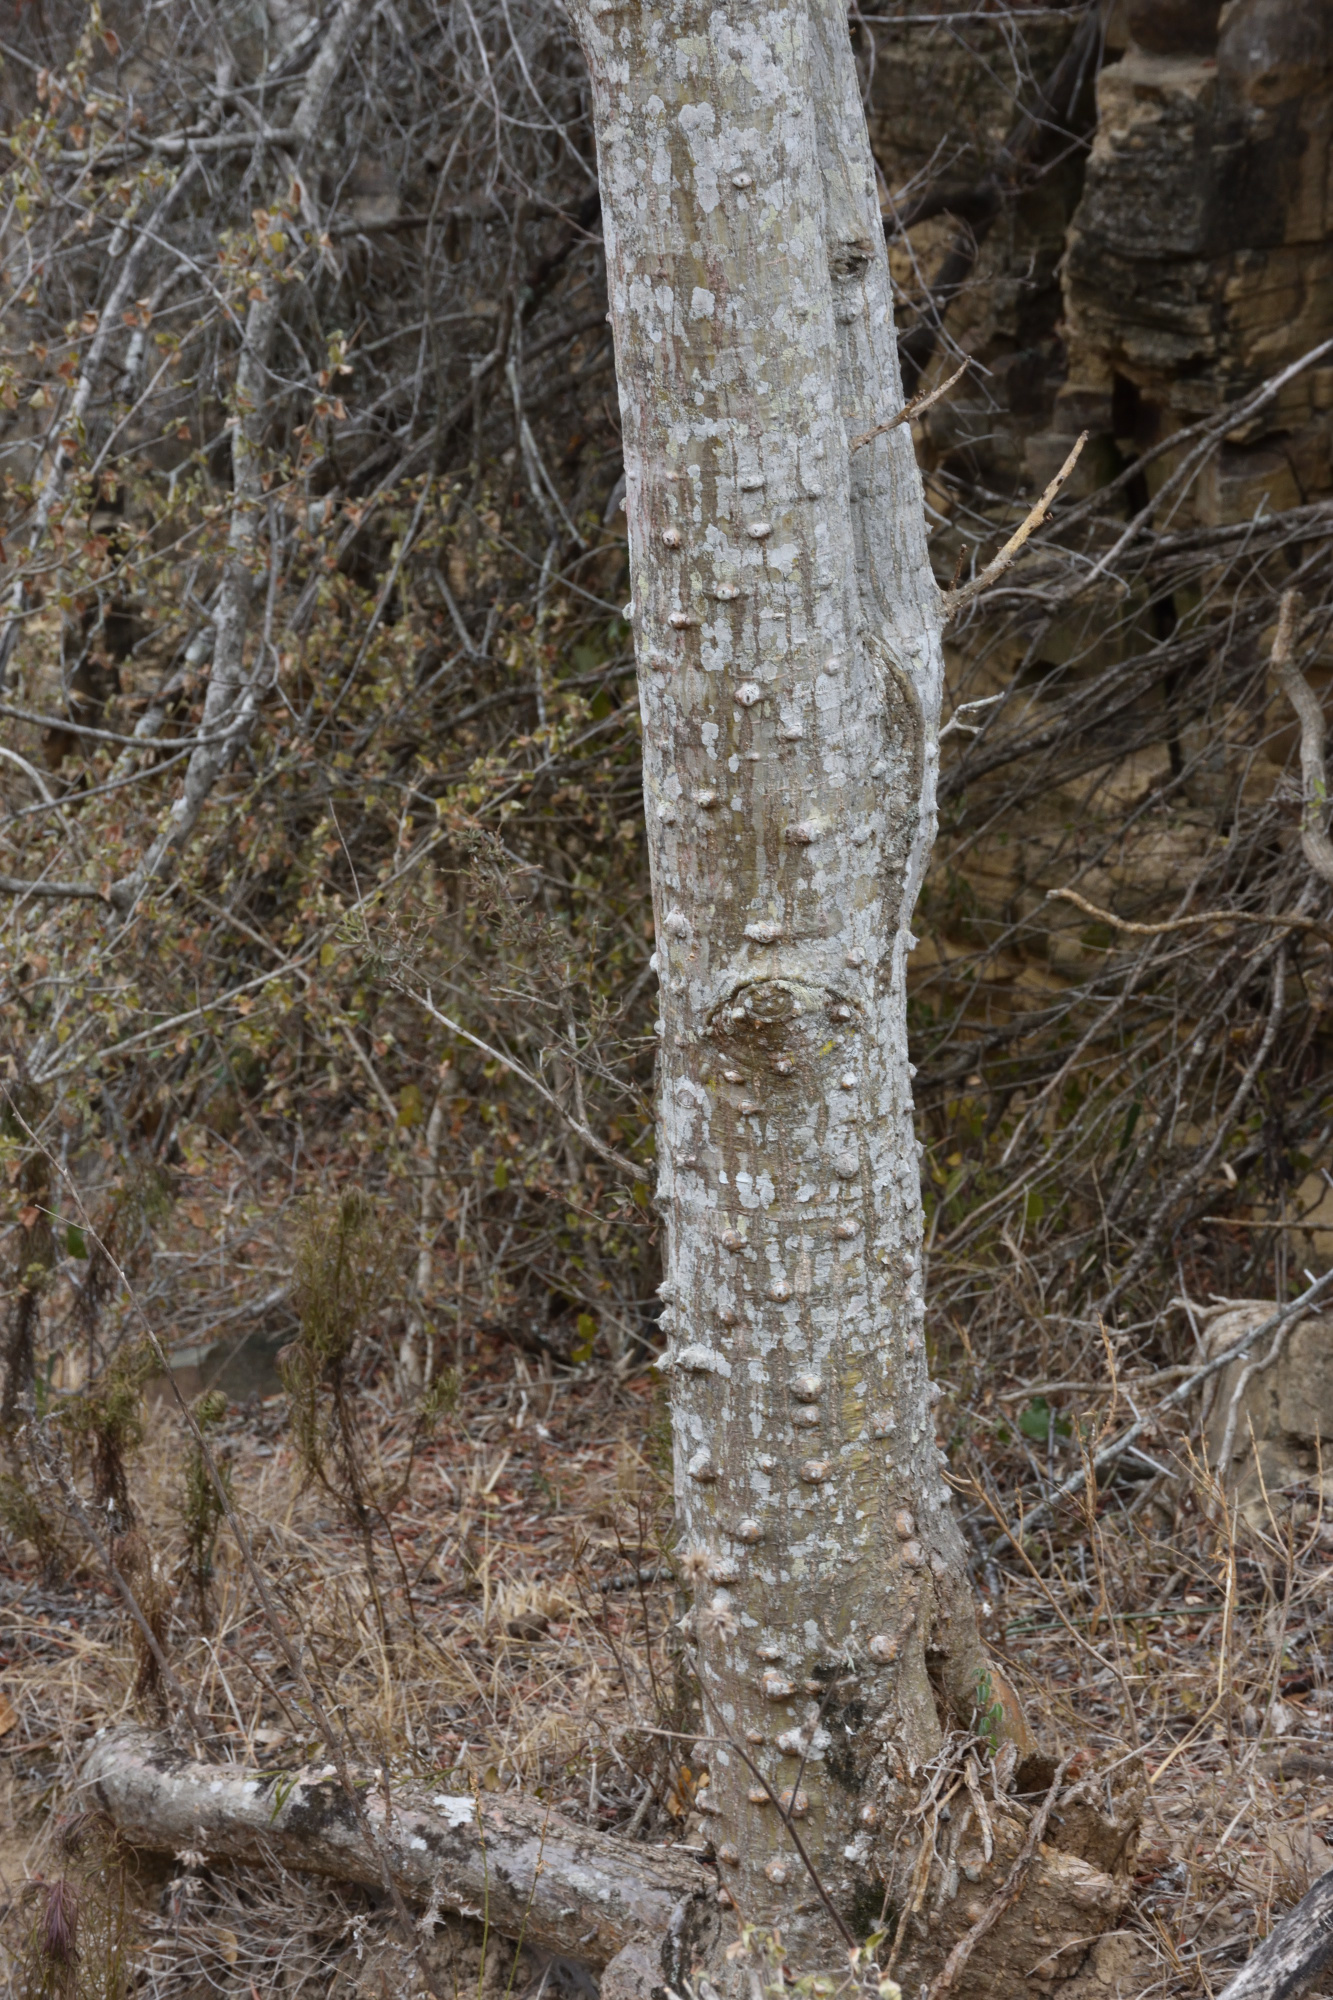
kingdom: Plantae
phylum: Tracheophyta
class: Magnoliopsida
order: Fabales
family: Fabaceae
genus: Erythrina
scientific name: Erythrina caffra
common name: Coast coral tree
